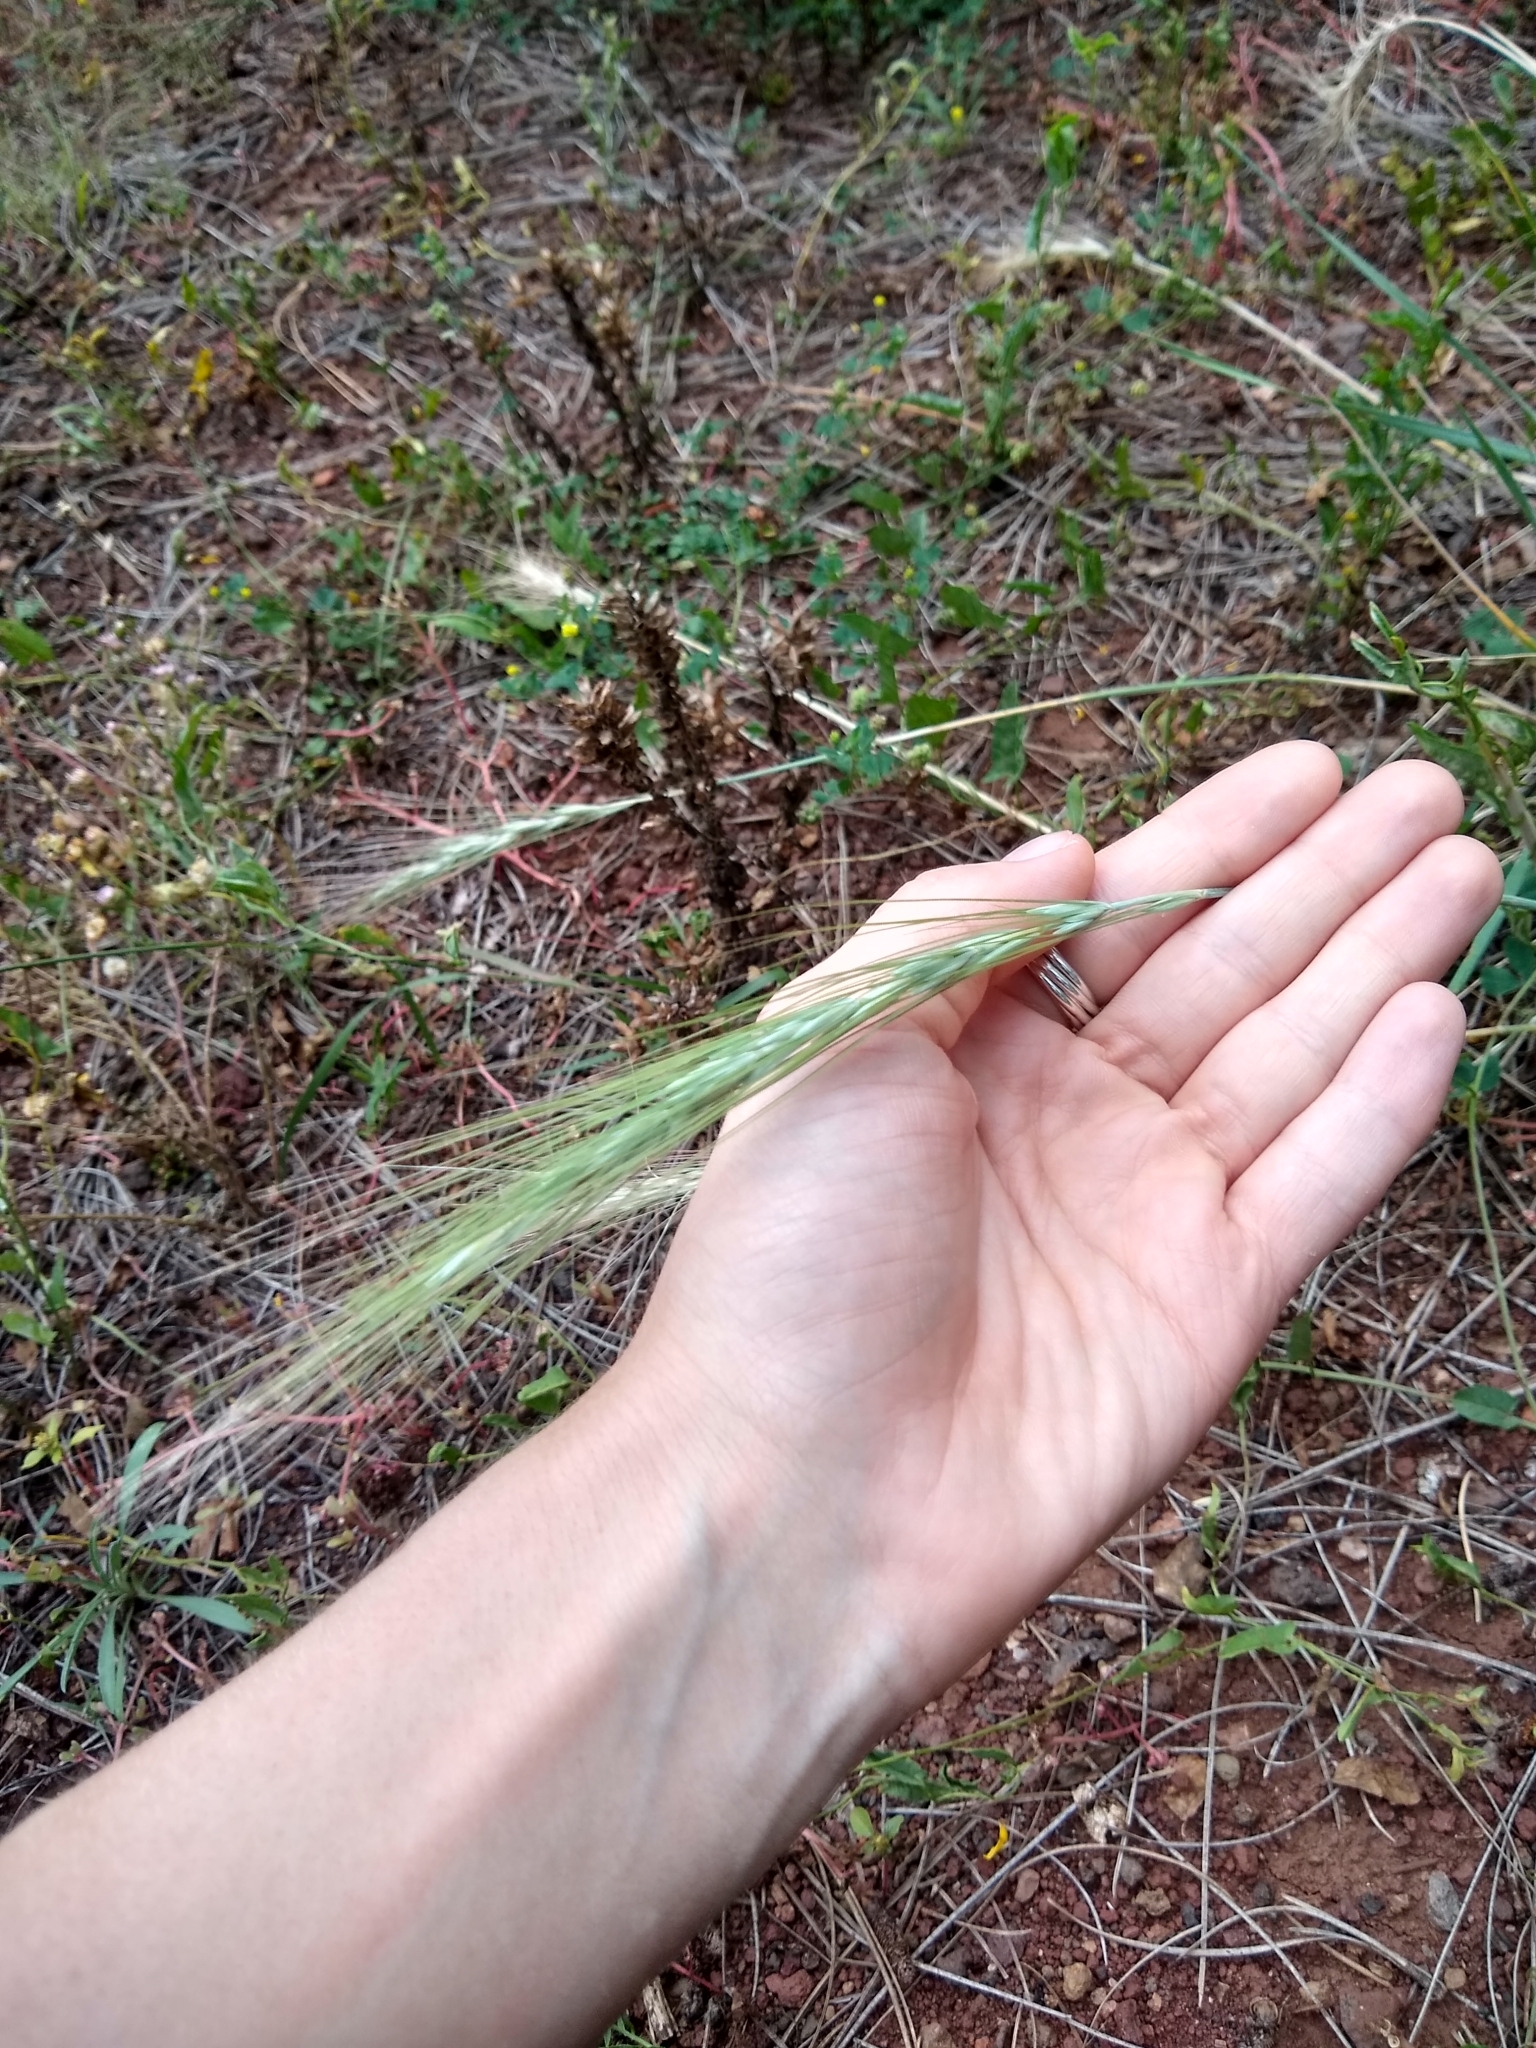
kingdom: Plantae
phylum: Tracheophyta
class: Liliopsida
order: Poales
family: Poaceae
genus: Hordeum
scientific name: Hordeum jubatum
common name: Foxtail barley
